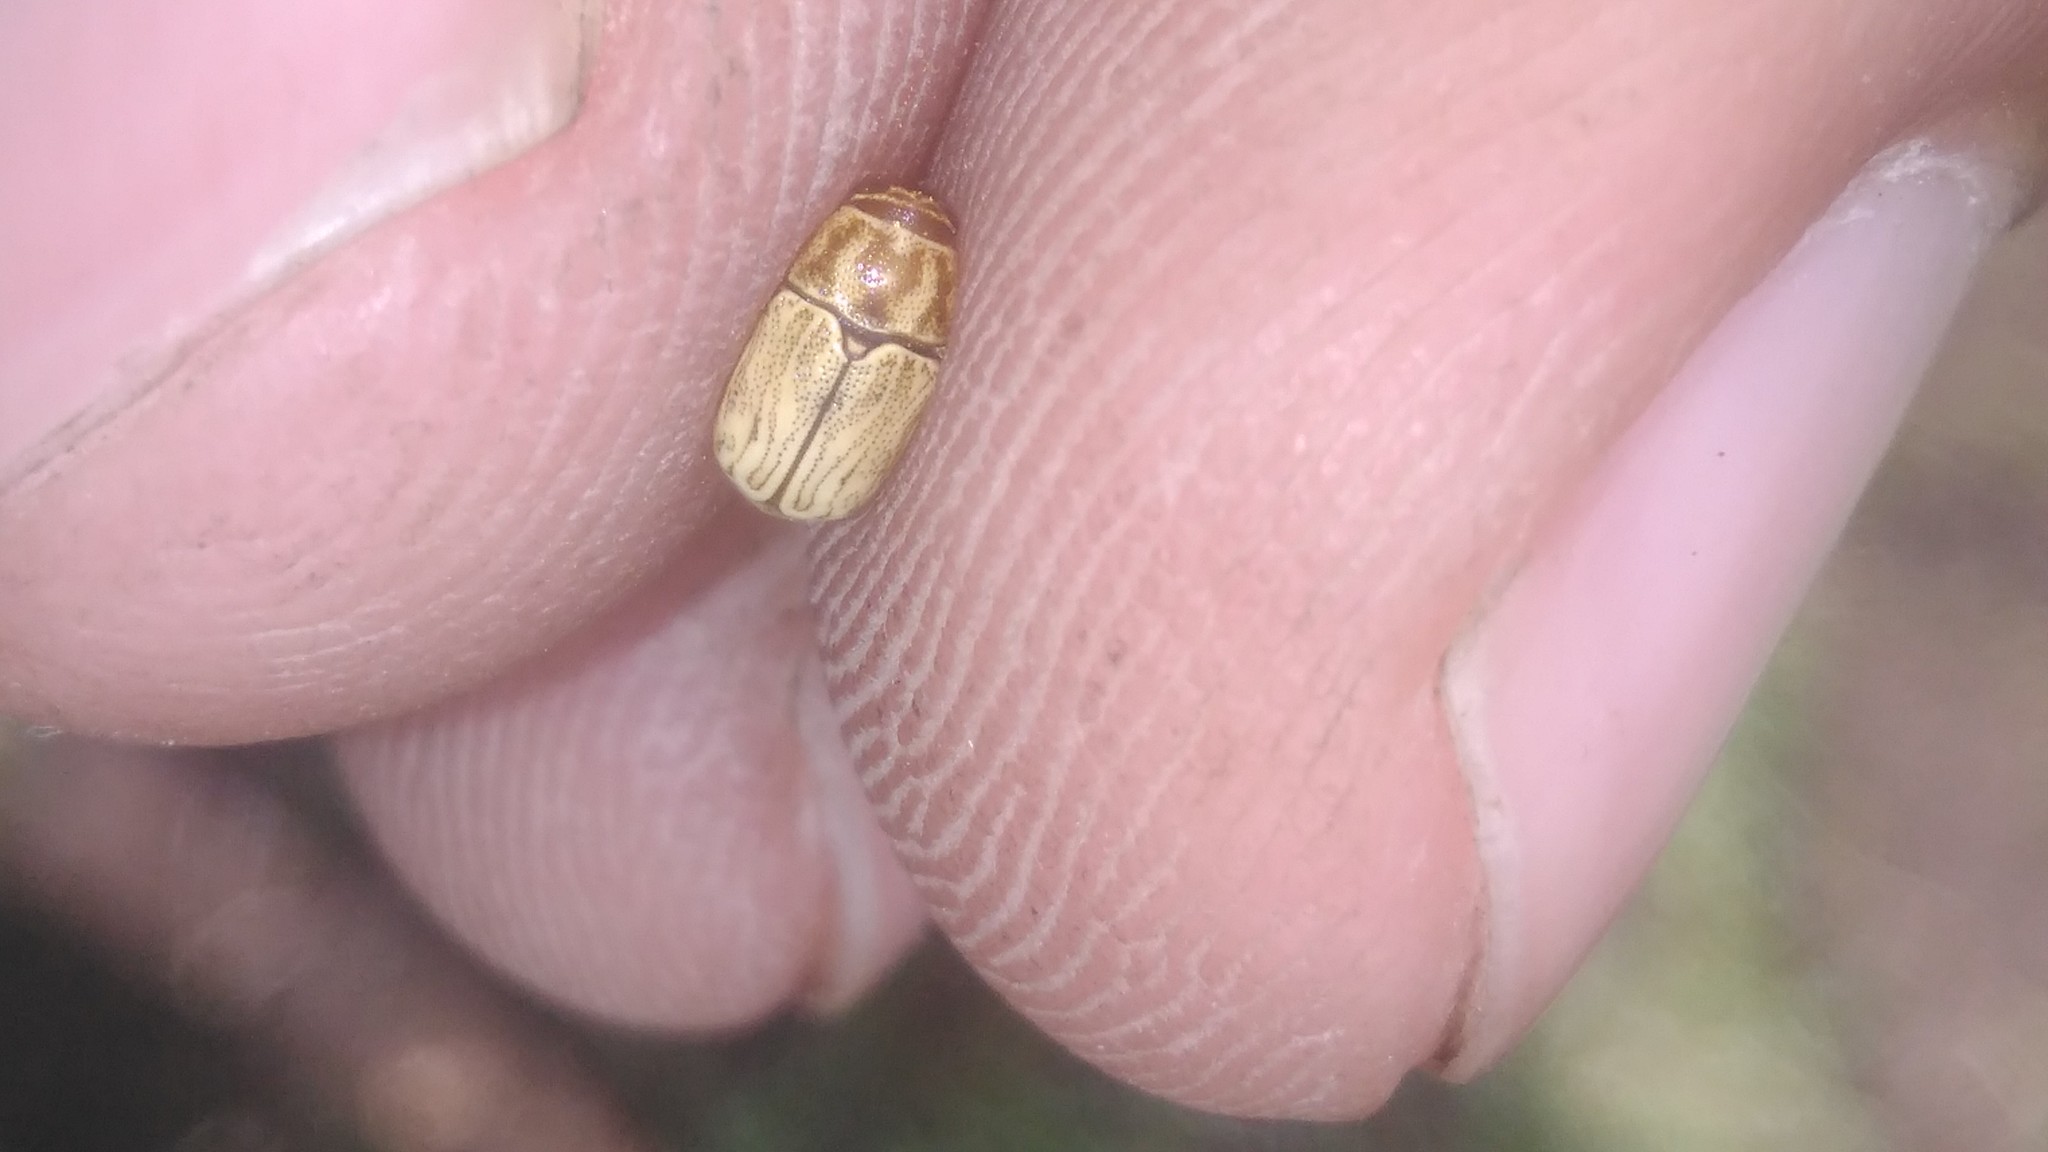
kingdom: Animalia
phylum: Arthropoda
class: Insecta
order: Coleoptera
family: Chrysomelidae
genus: Pachybrachis
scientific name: Pachybrachis
